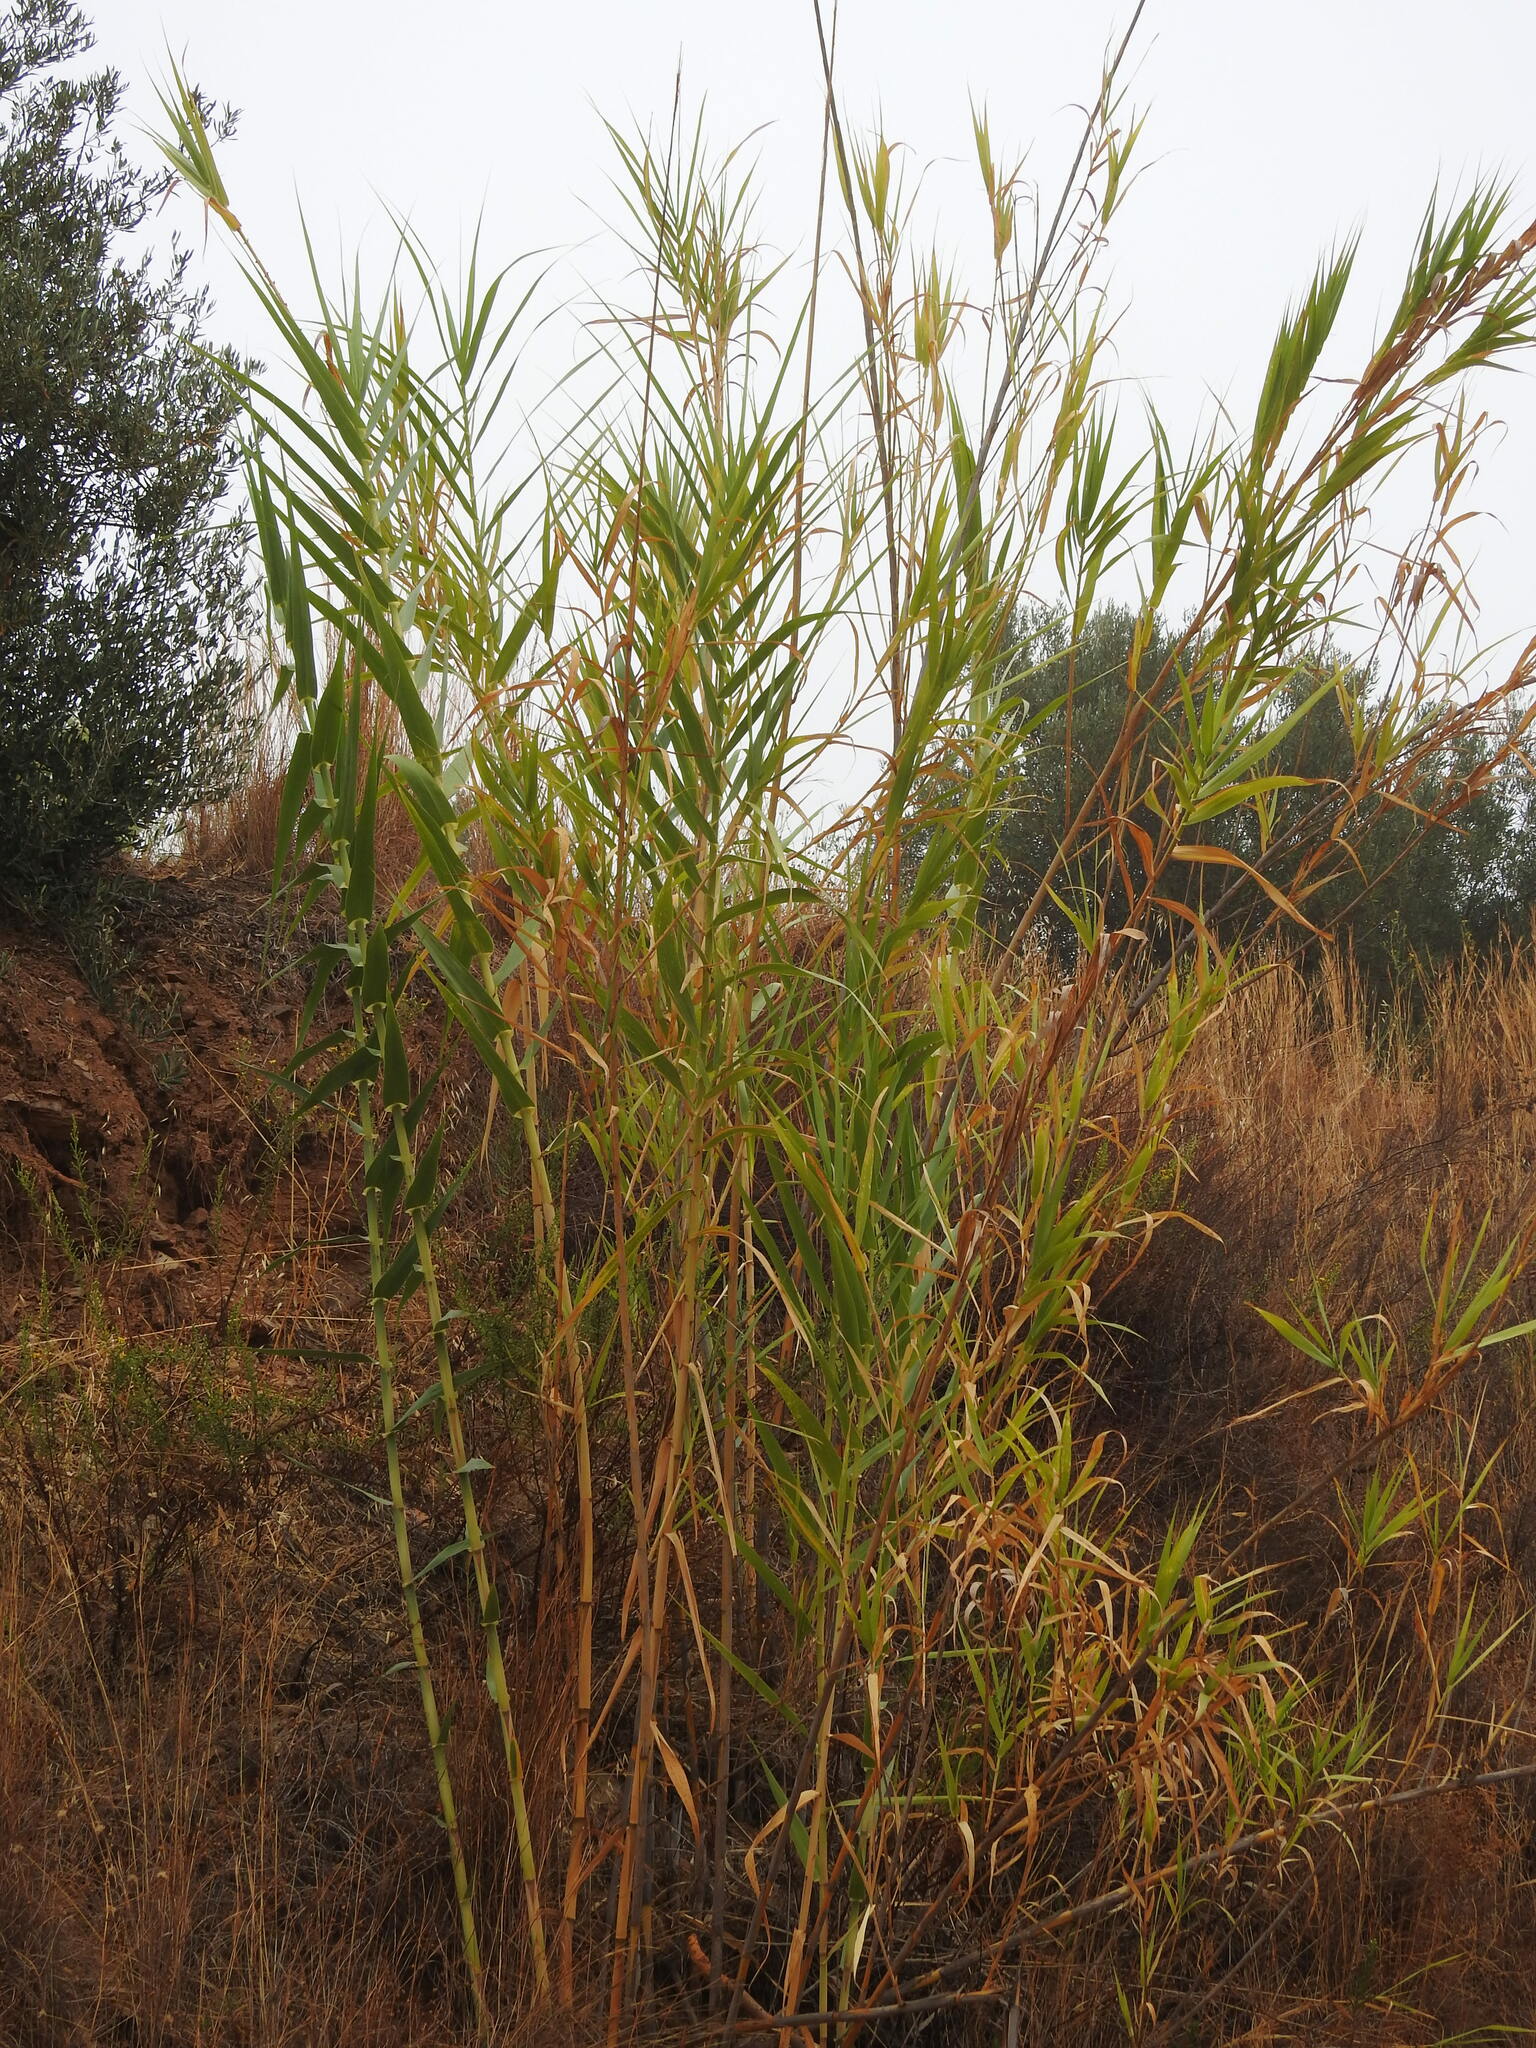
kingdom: Plantae
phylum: Tracheophyta
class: Liliopsida
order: Poales
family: Poaceae
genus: Arundo
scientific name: Arundo donax
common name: Giant reed
